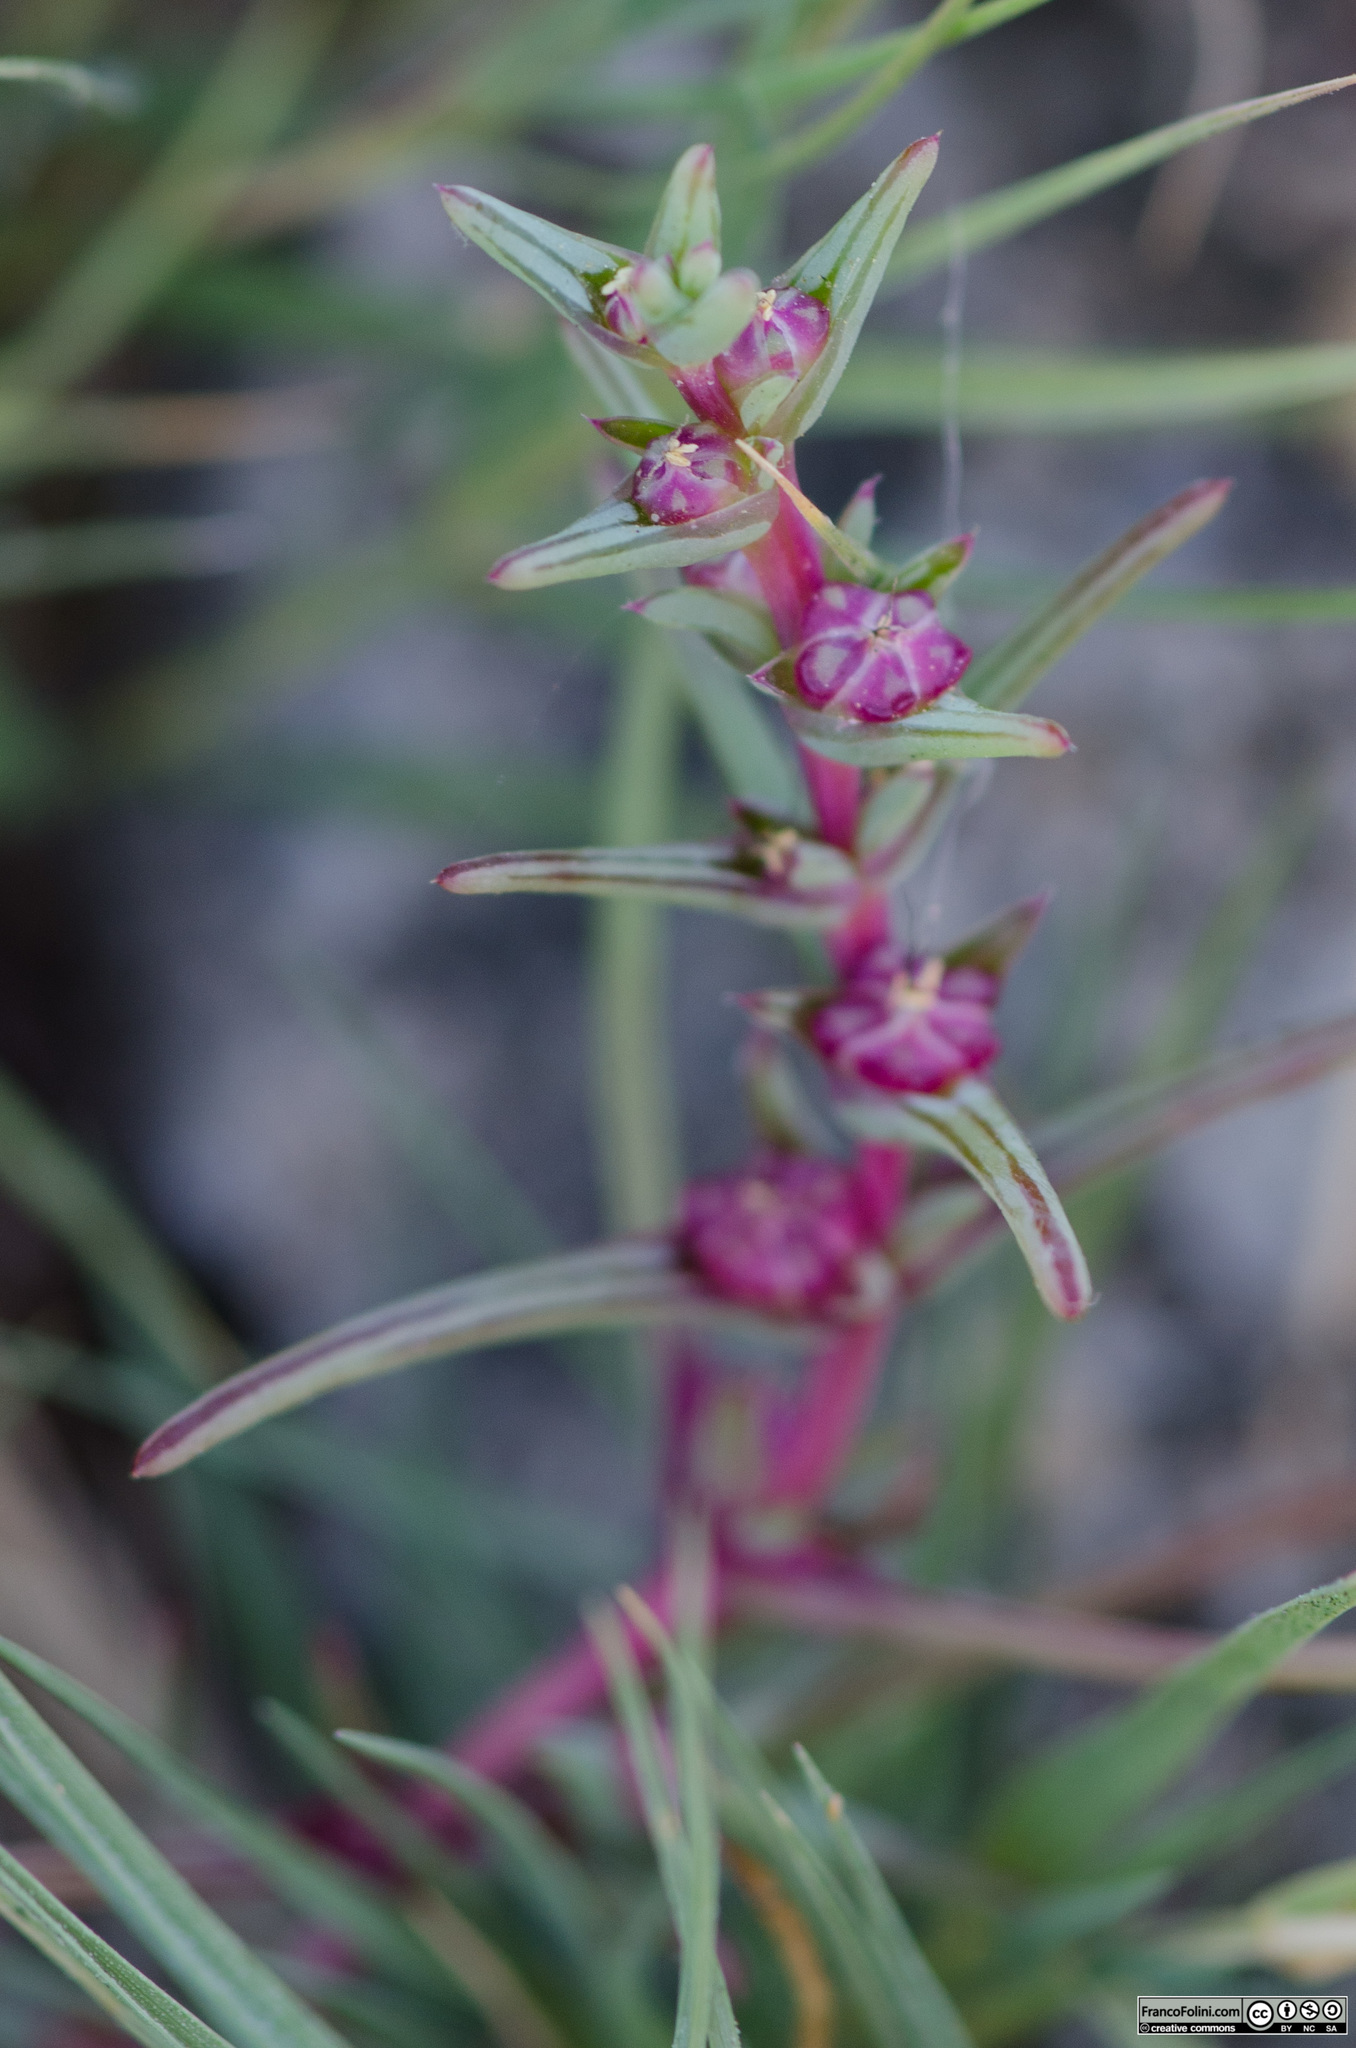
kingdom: Plantae
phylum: Tracheophyta
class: Magnoliopsida
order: Caryophyllales
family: Amaranthaceae
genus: Salsola
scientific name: Salsola soda
